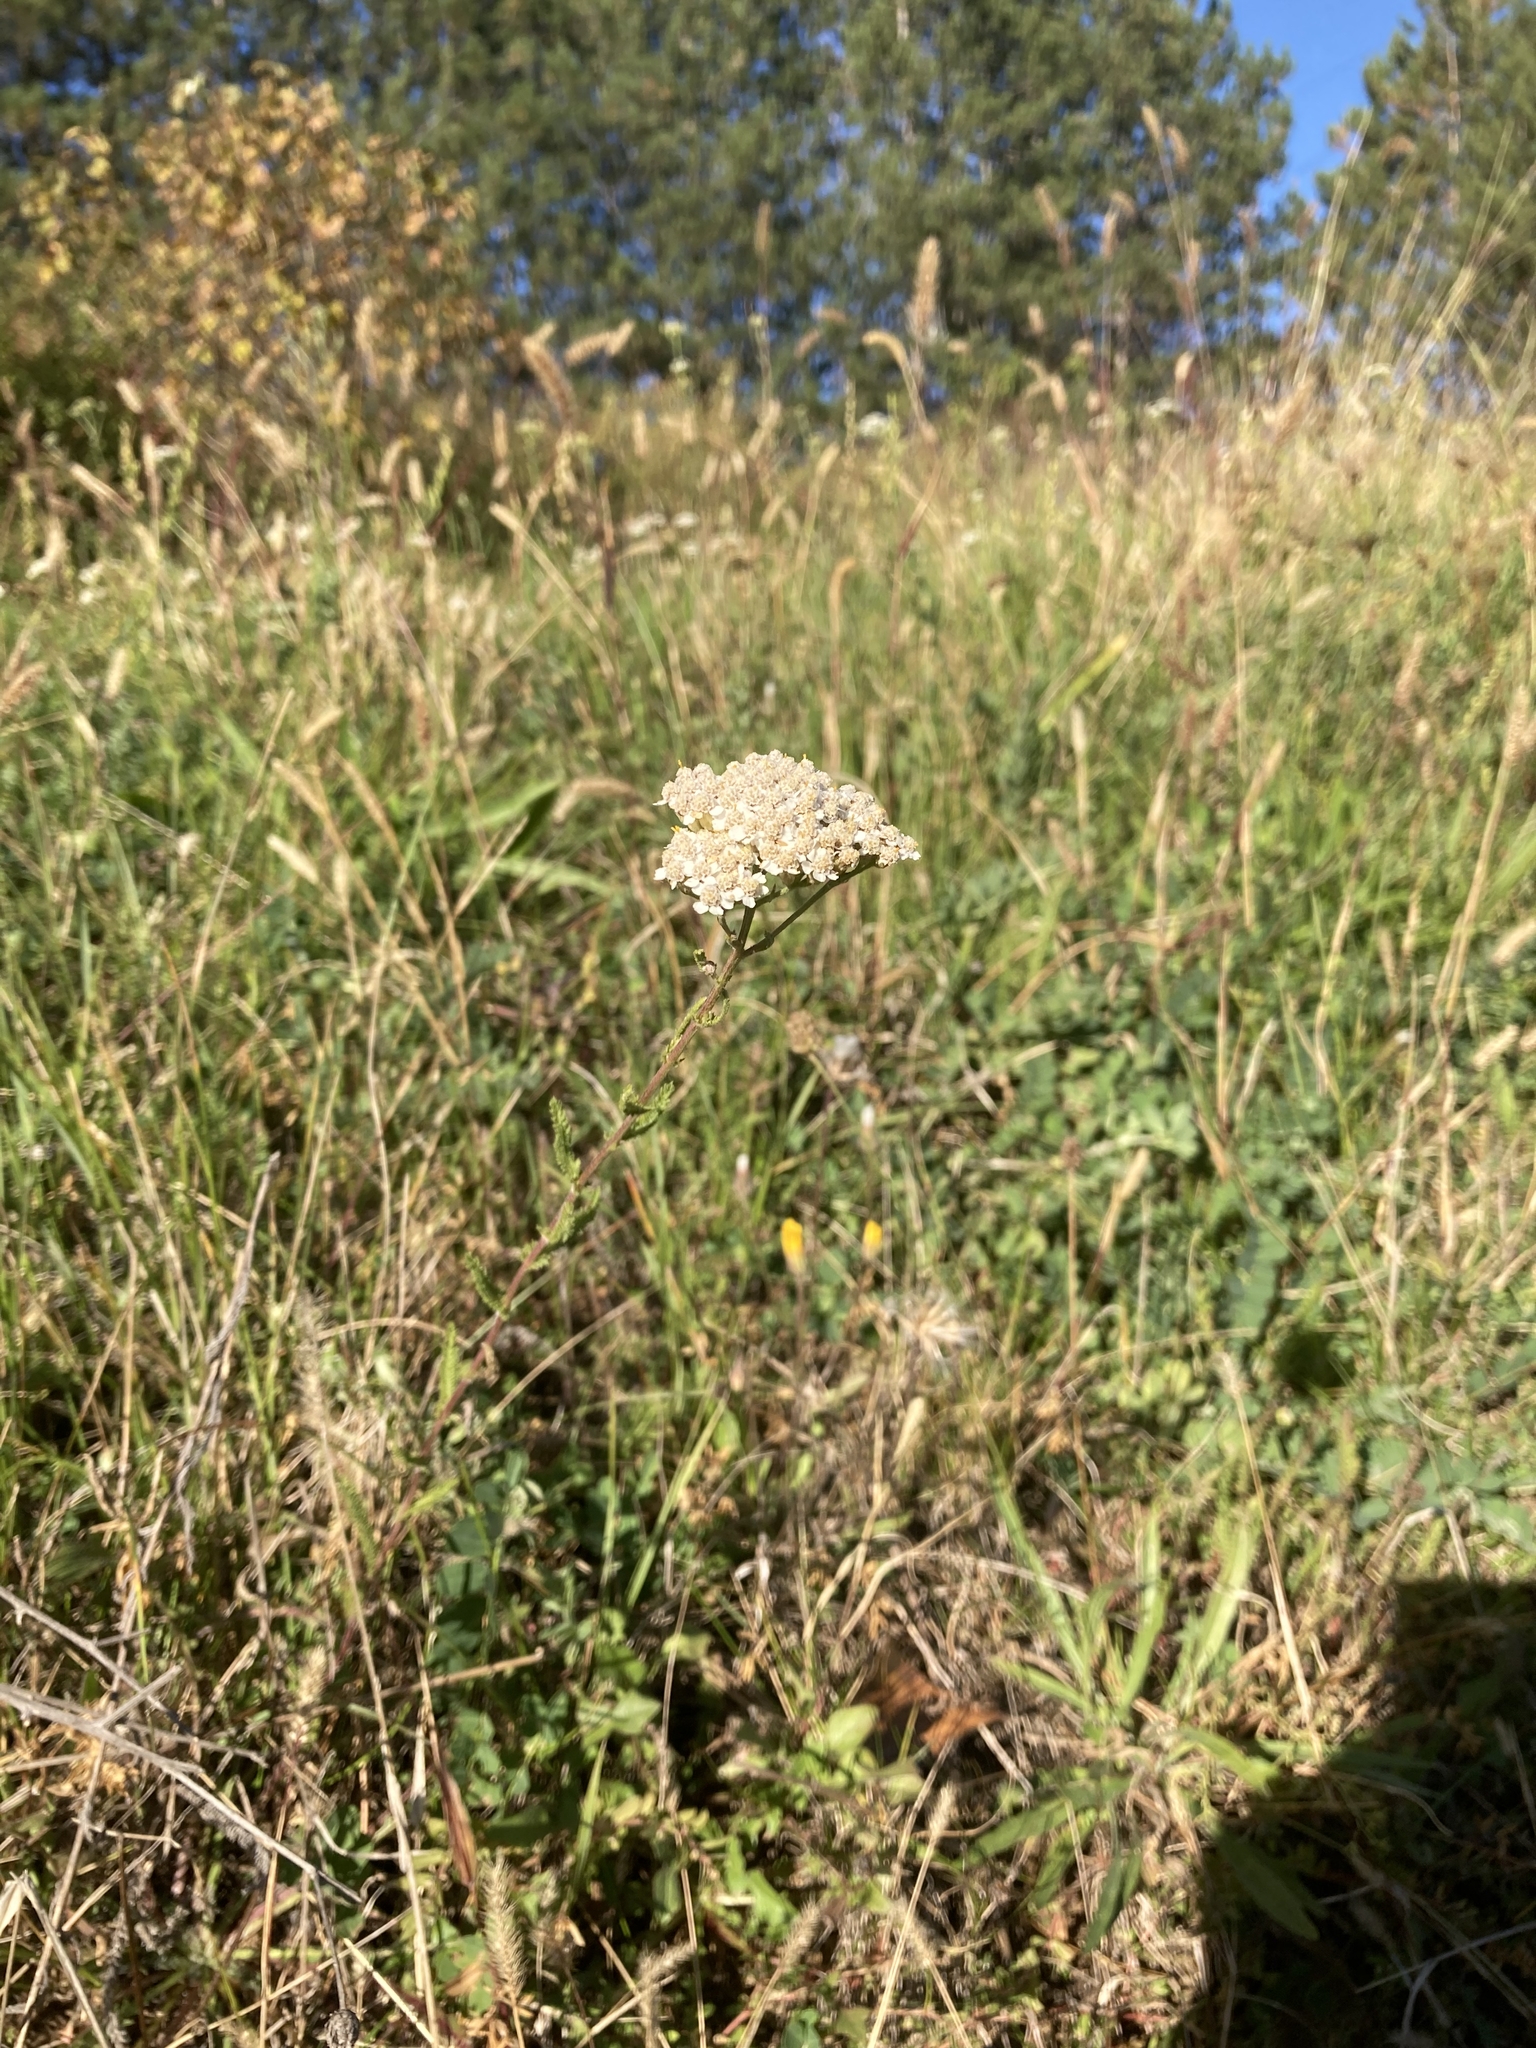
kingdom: Plantae
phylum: Tracheophyta
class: Magnoliopsida
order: Asterales
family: Asteraceae
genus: Achillea
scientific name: Achillea millefolium
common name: Yarrow
